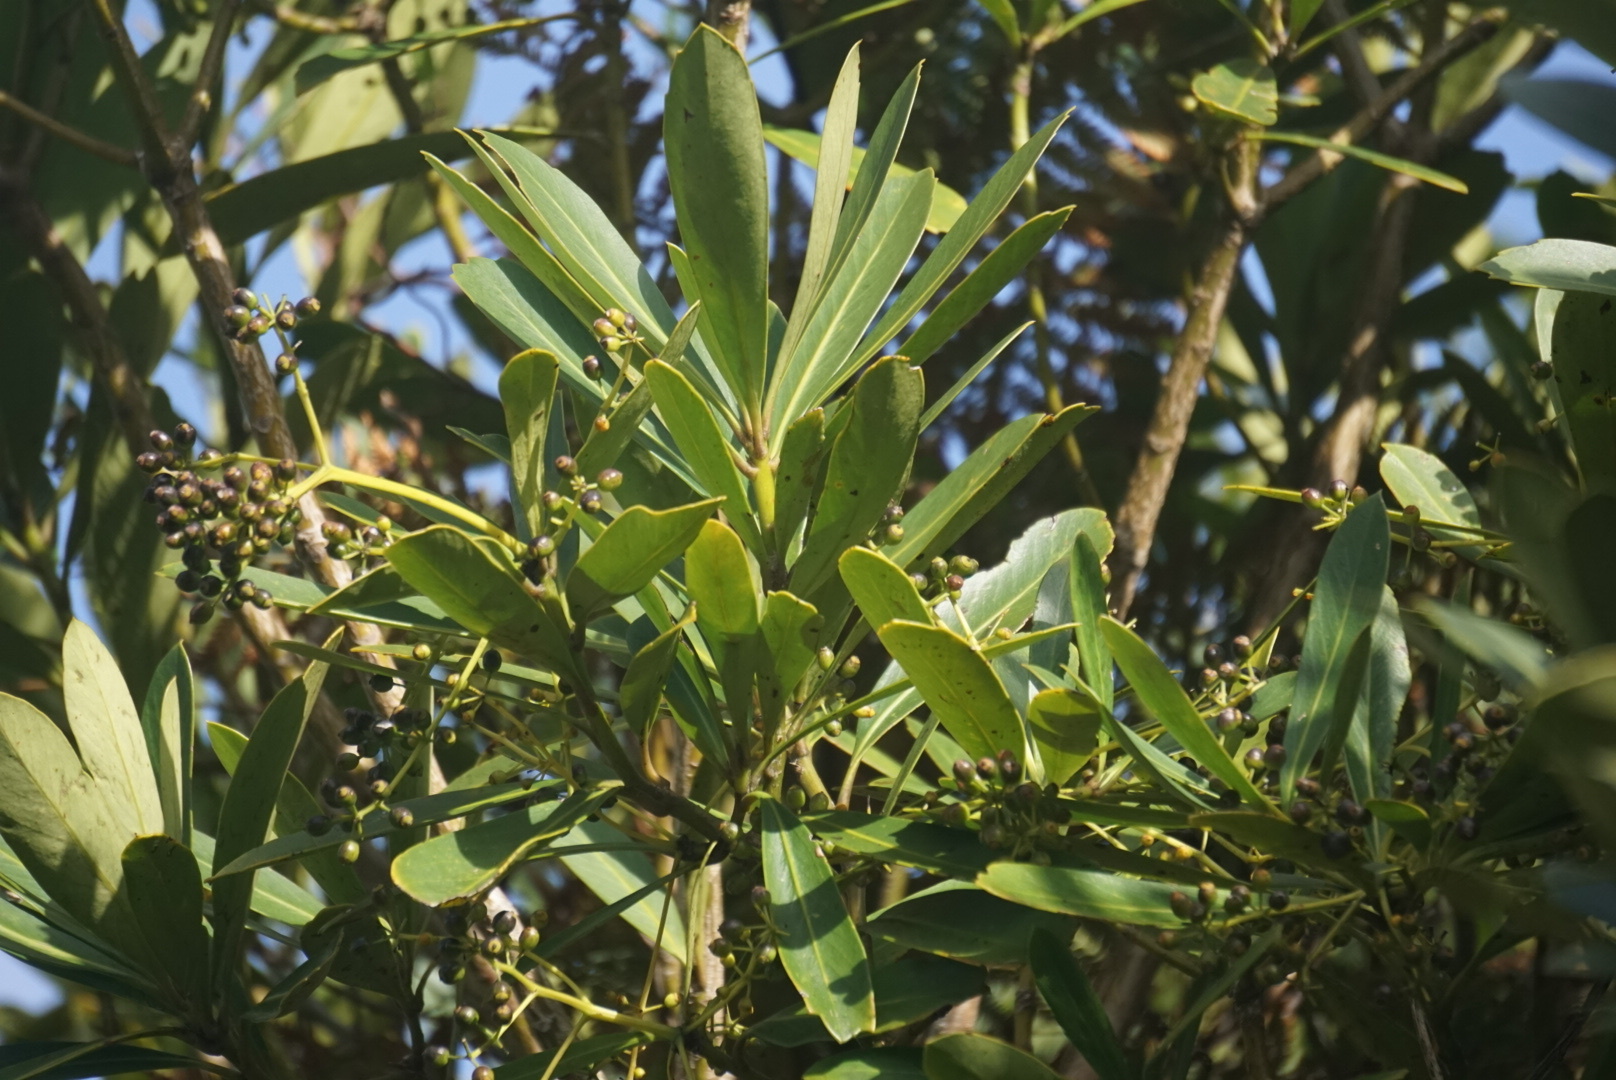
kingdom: Plantae
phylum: Tracheophyta
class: Magnoliopsida
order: Apiales
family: Araliaceae
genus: Pseudopanax
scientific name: Pseudopanax chathamicus
